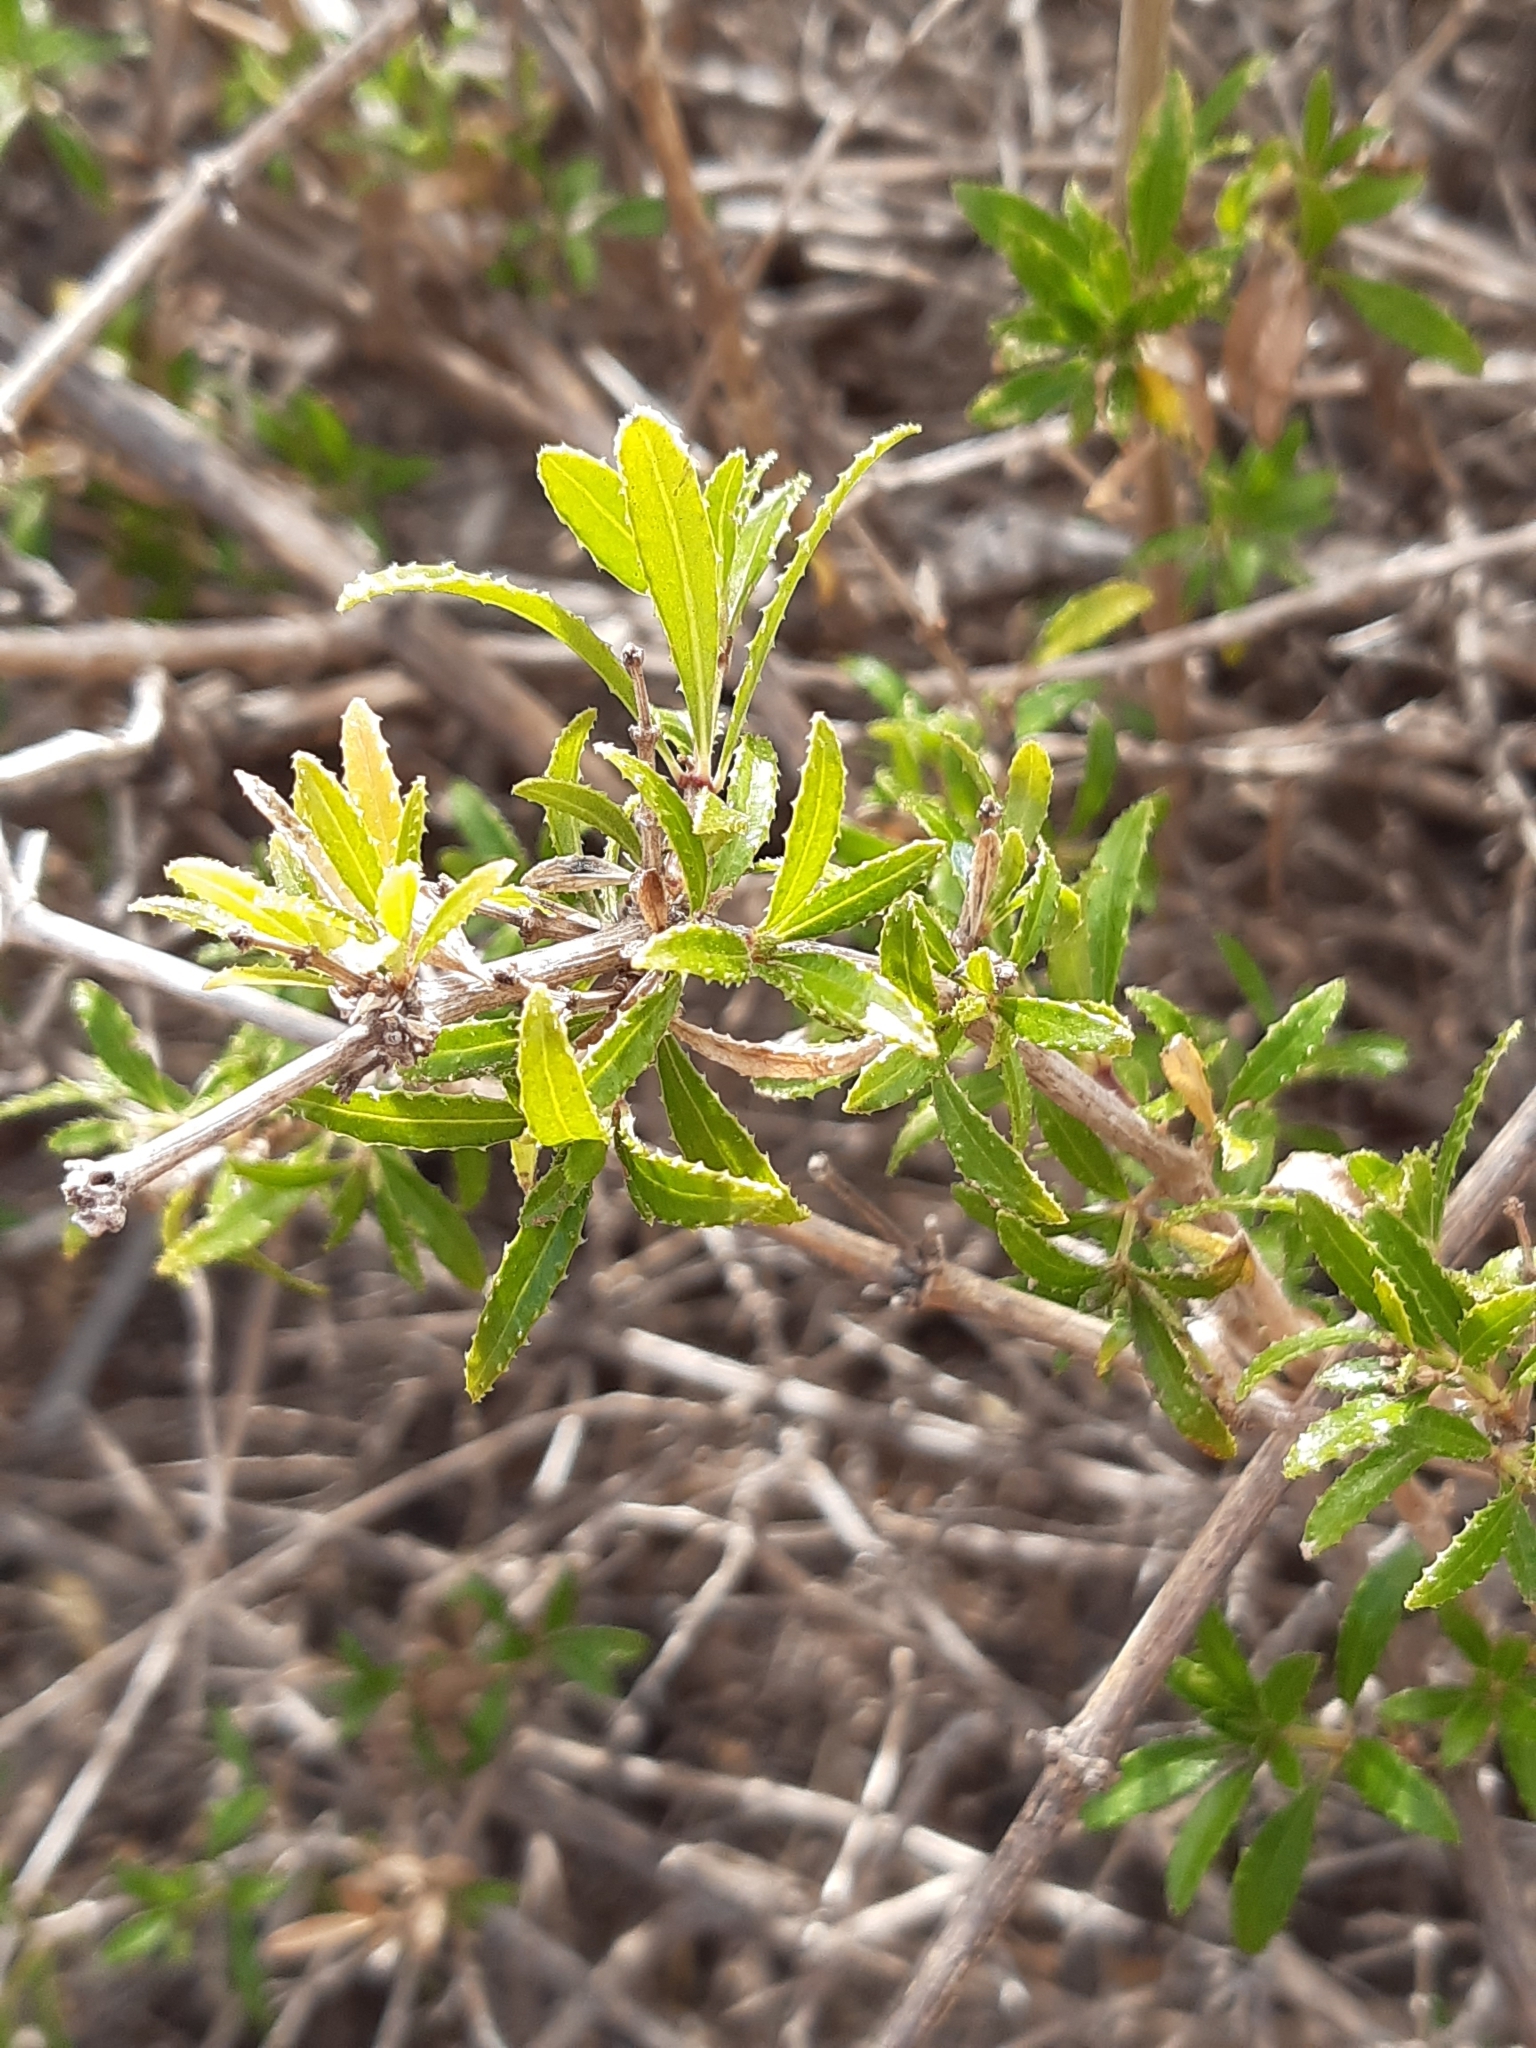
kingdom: Plantae
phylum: Tracheophyta
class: Magnoliopsida
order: Gentianales
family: Rubiaceae
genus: Rubia
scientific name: Rubia fruticosa
